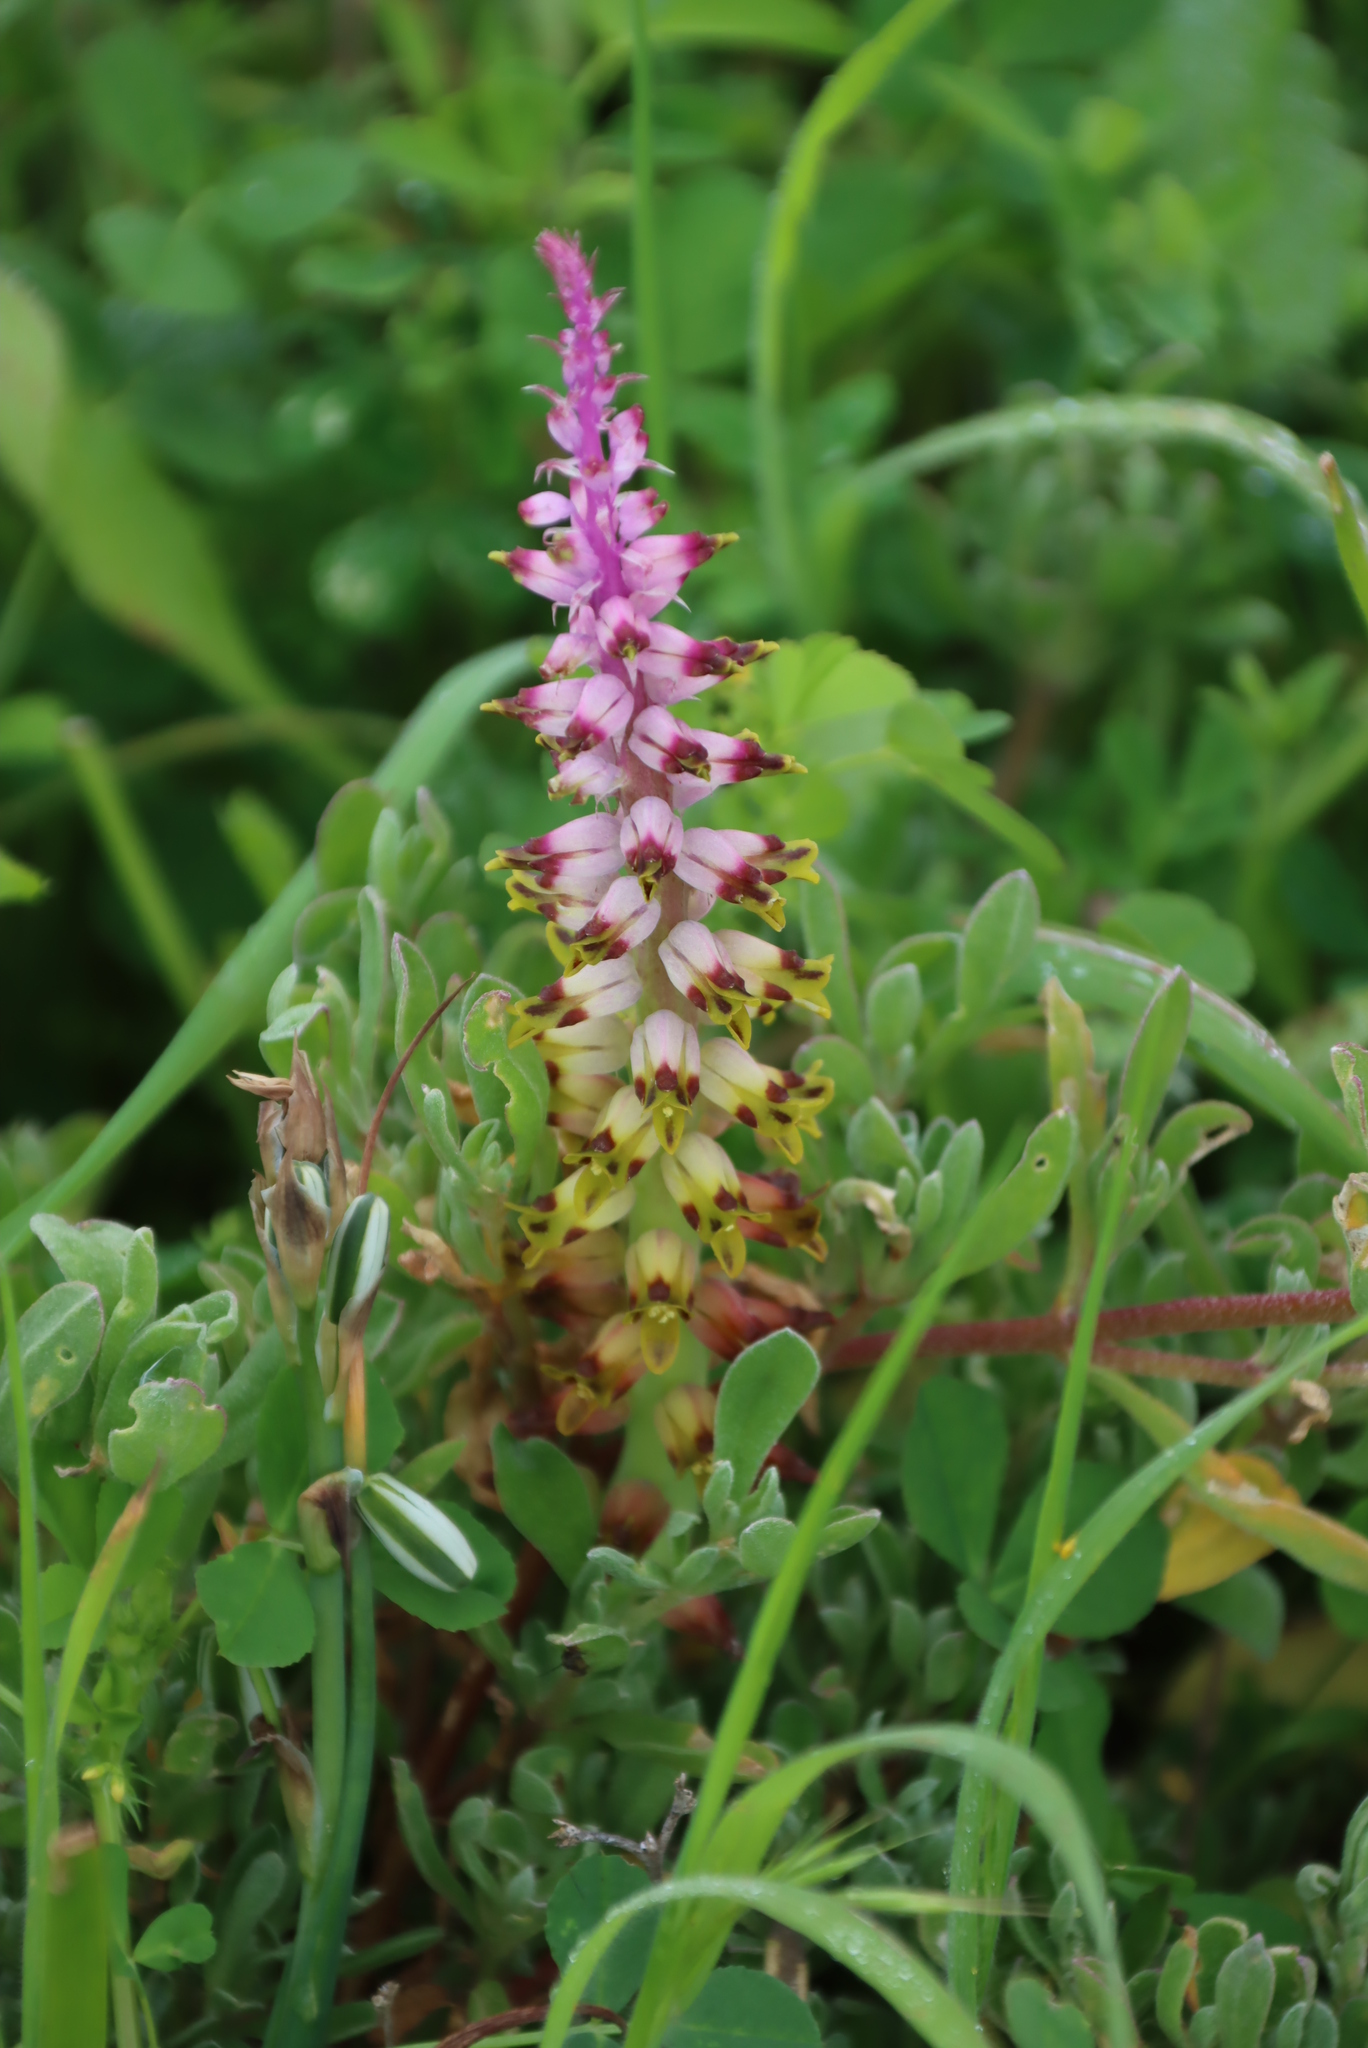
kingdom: Plantae
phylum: Tracheophyta
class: Liliopsida
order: Asparagales
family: Asparagaceae
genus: Lachenalia
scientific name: Lachenalia mutabilis
